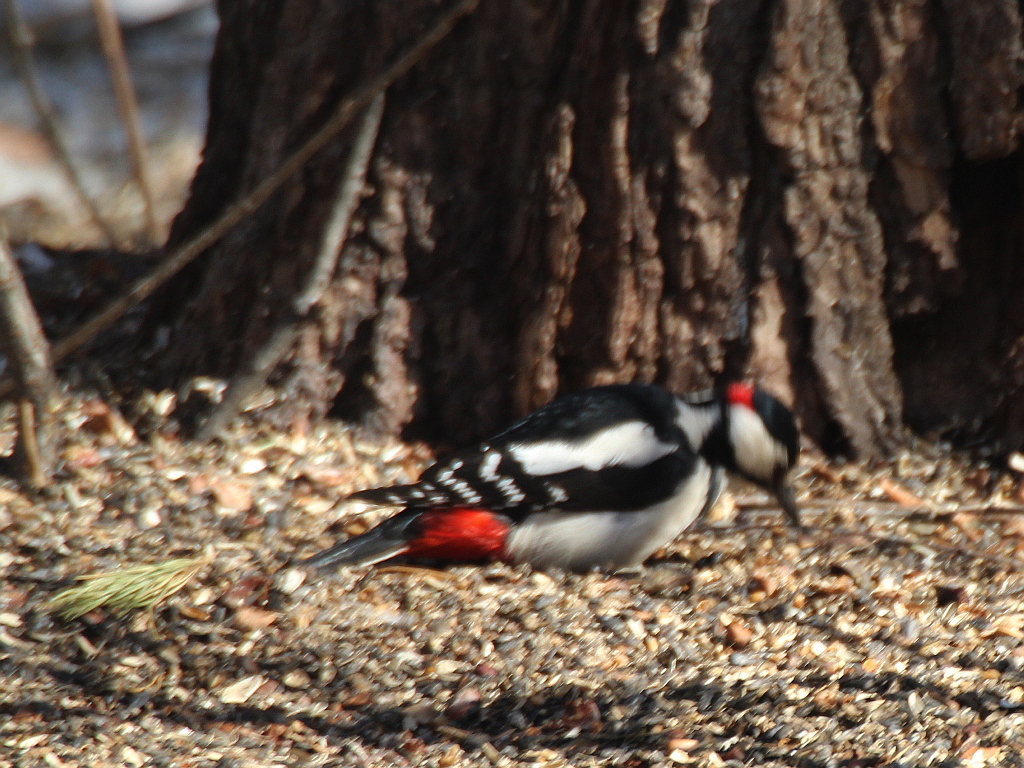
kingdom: Animalia
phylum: Chordata
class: Aves
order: Piciformes
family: Picidae
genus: Dendrocopos
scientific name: Dendrocopos major
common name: Great spotted woodpecker
